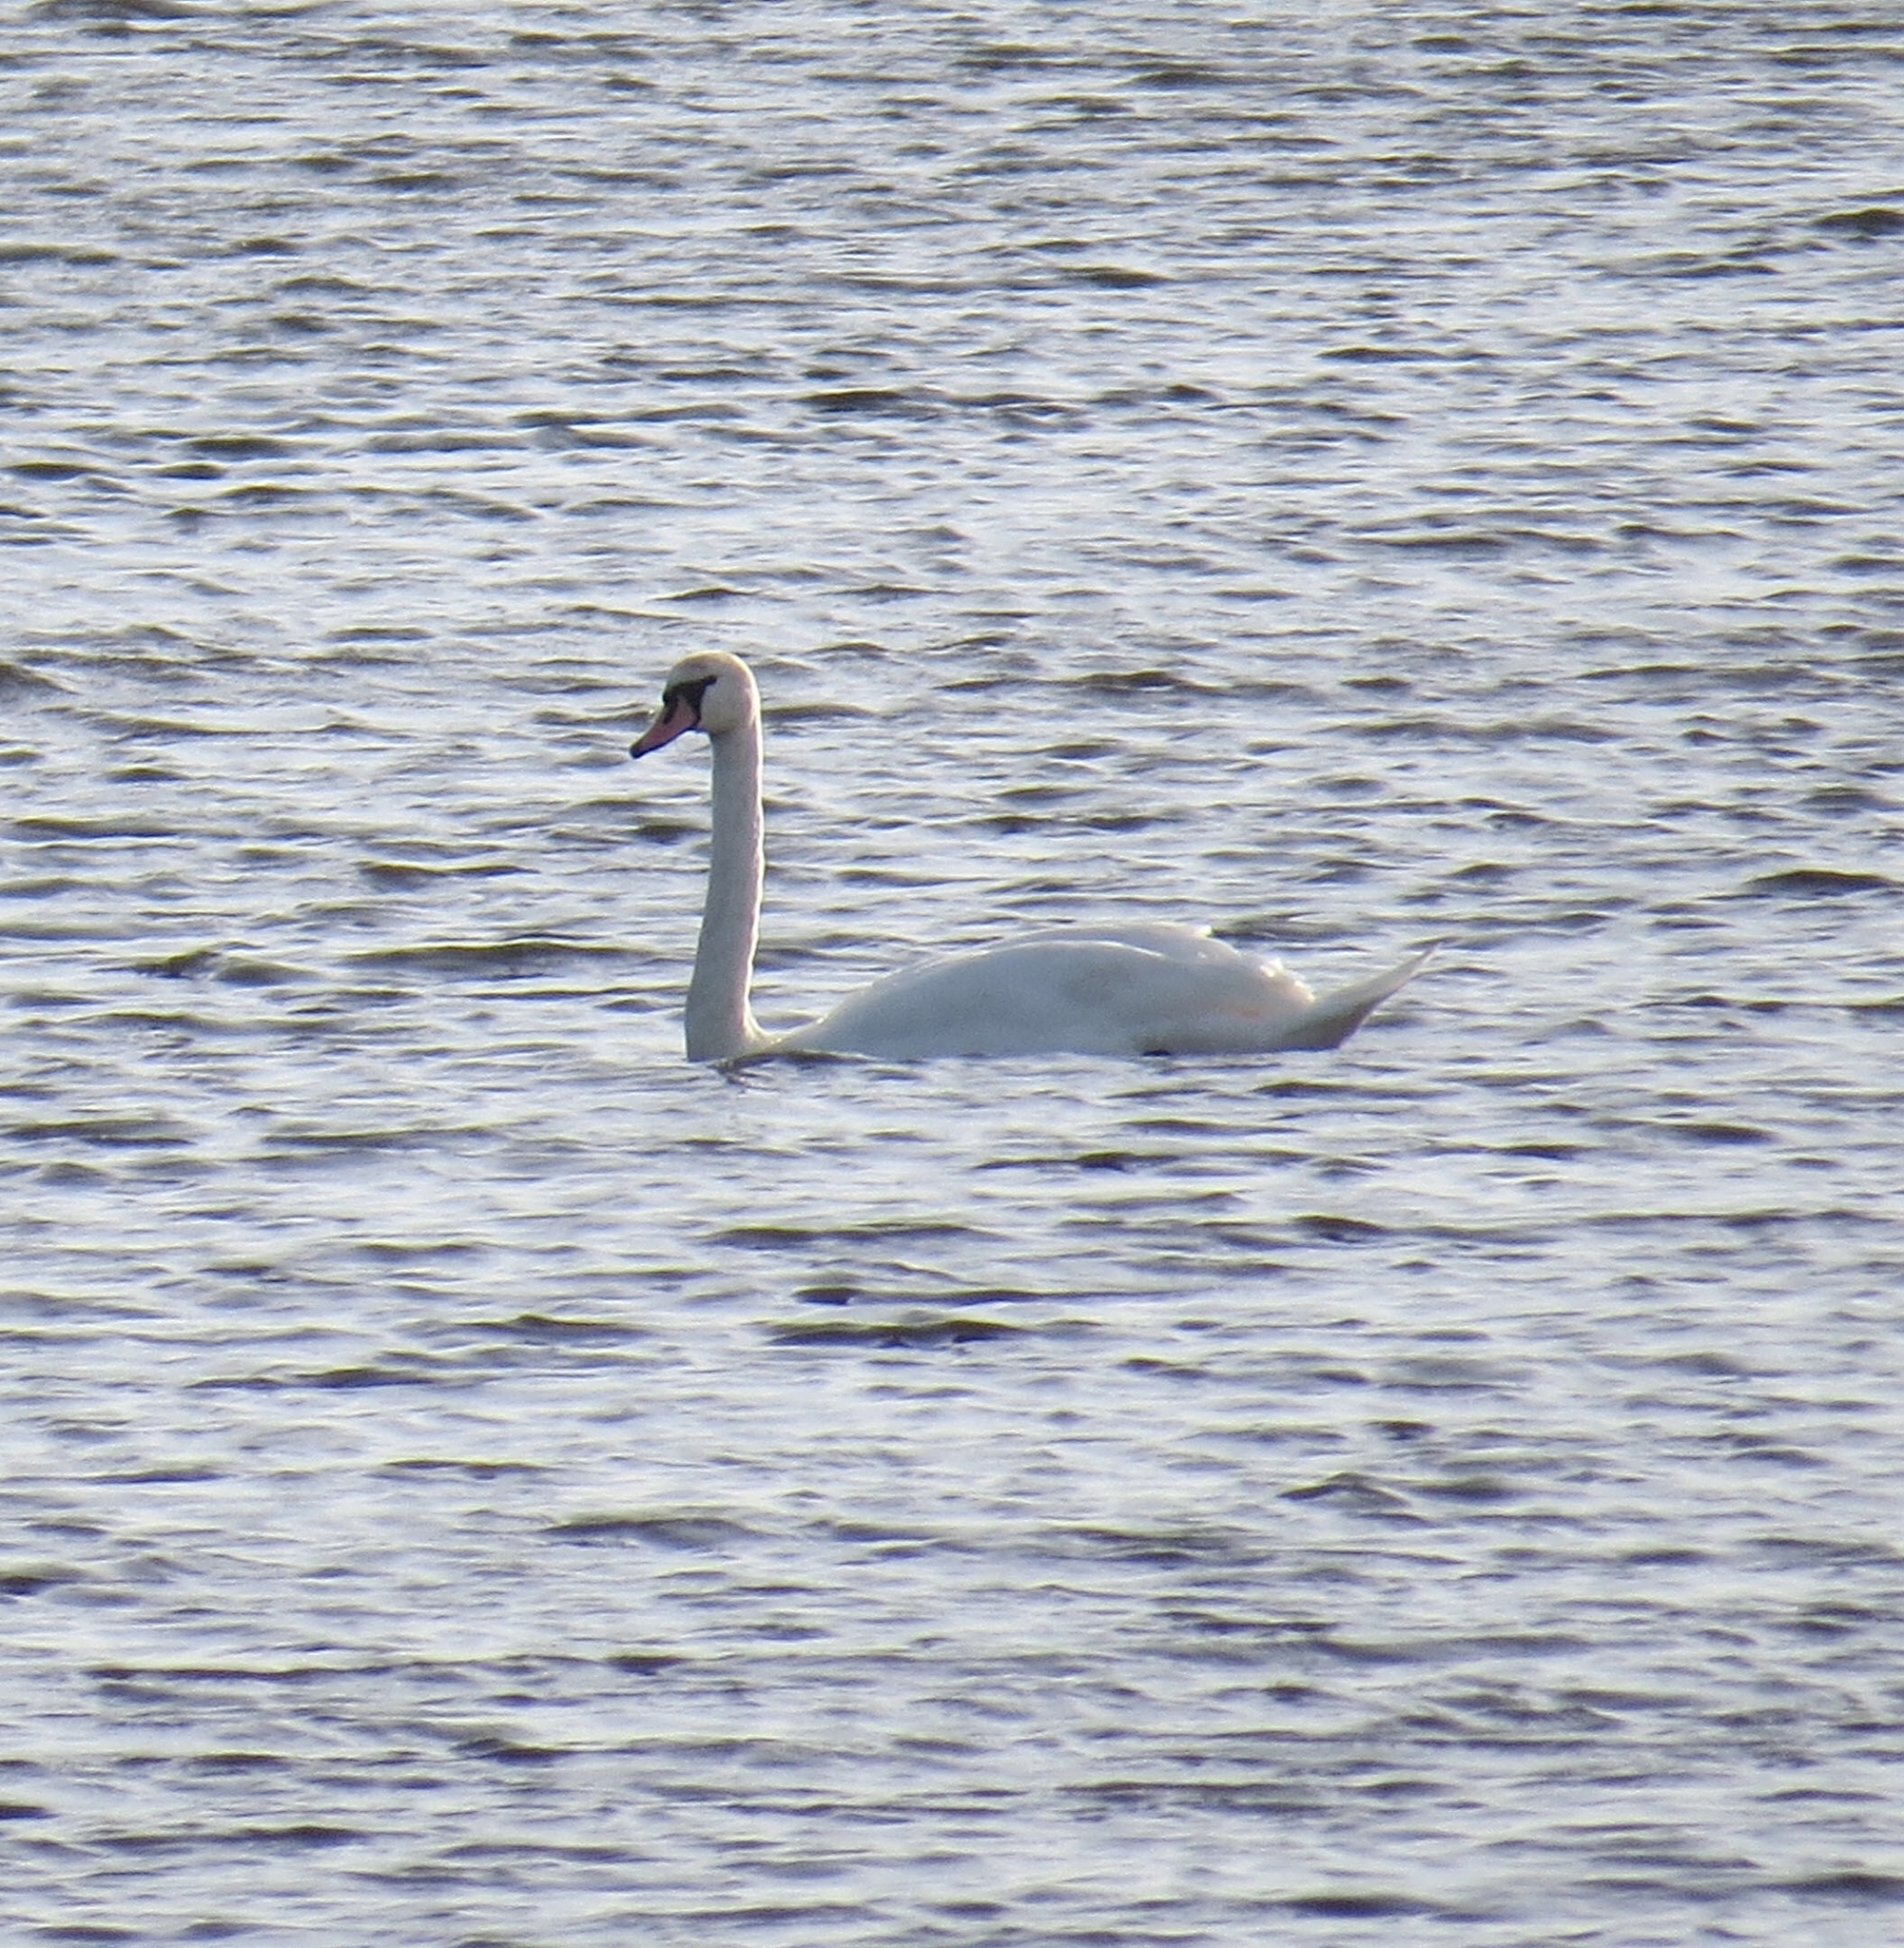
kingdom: Animalia
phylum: Chordata
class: Aves
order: Anseriformes
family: Anatidae
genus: Cygnus
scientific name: Cygnus olor
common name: Mute swan
